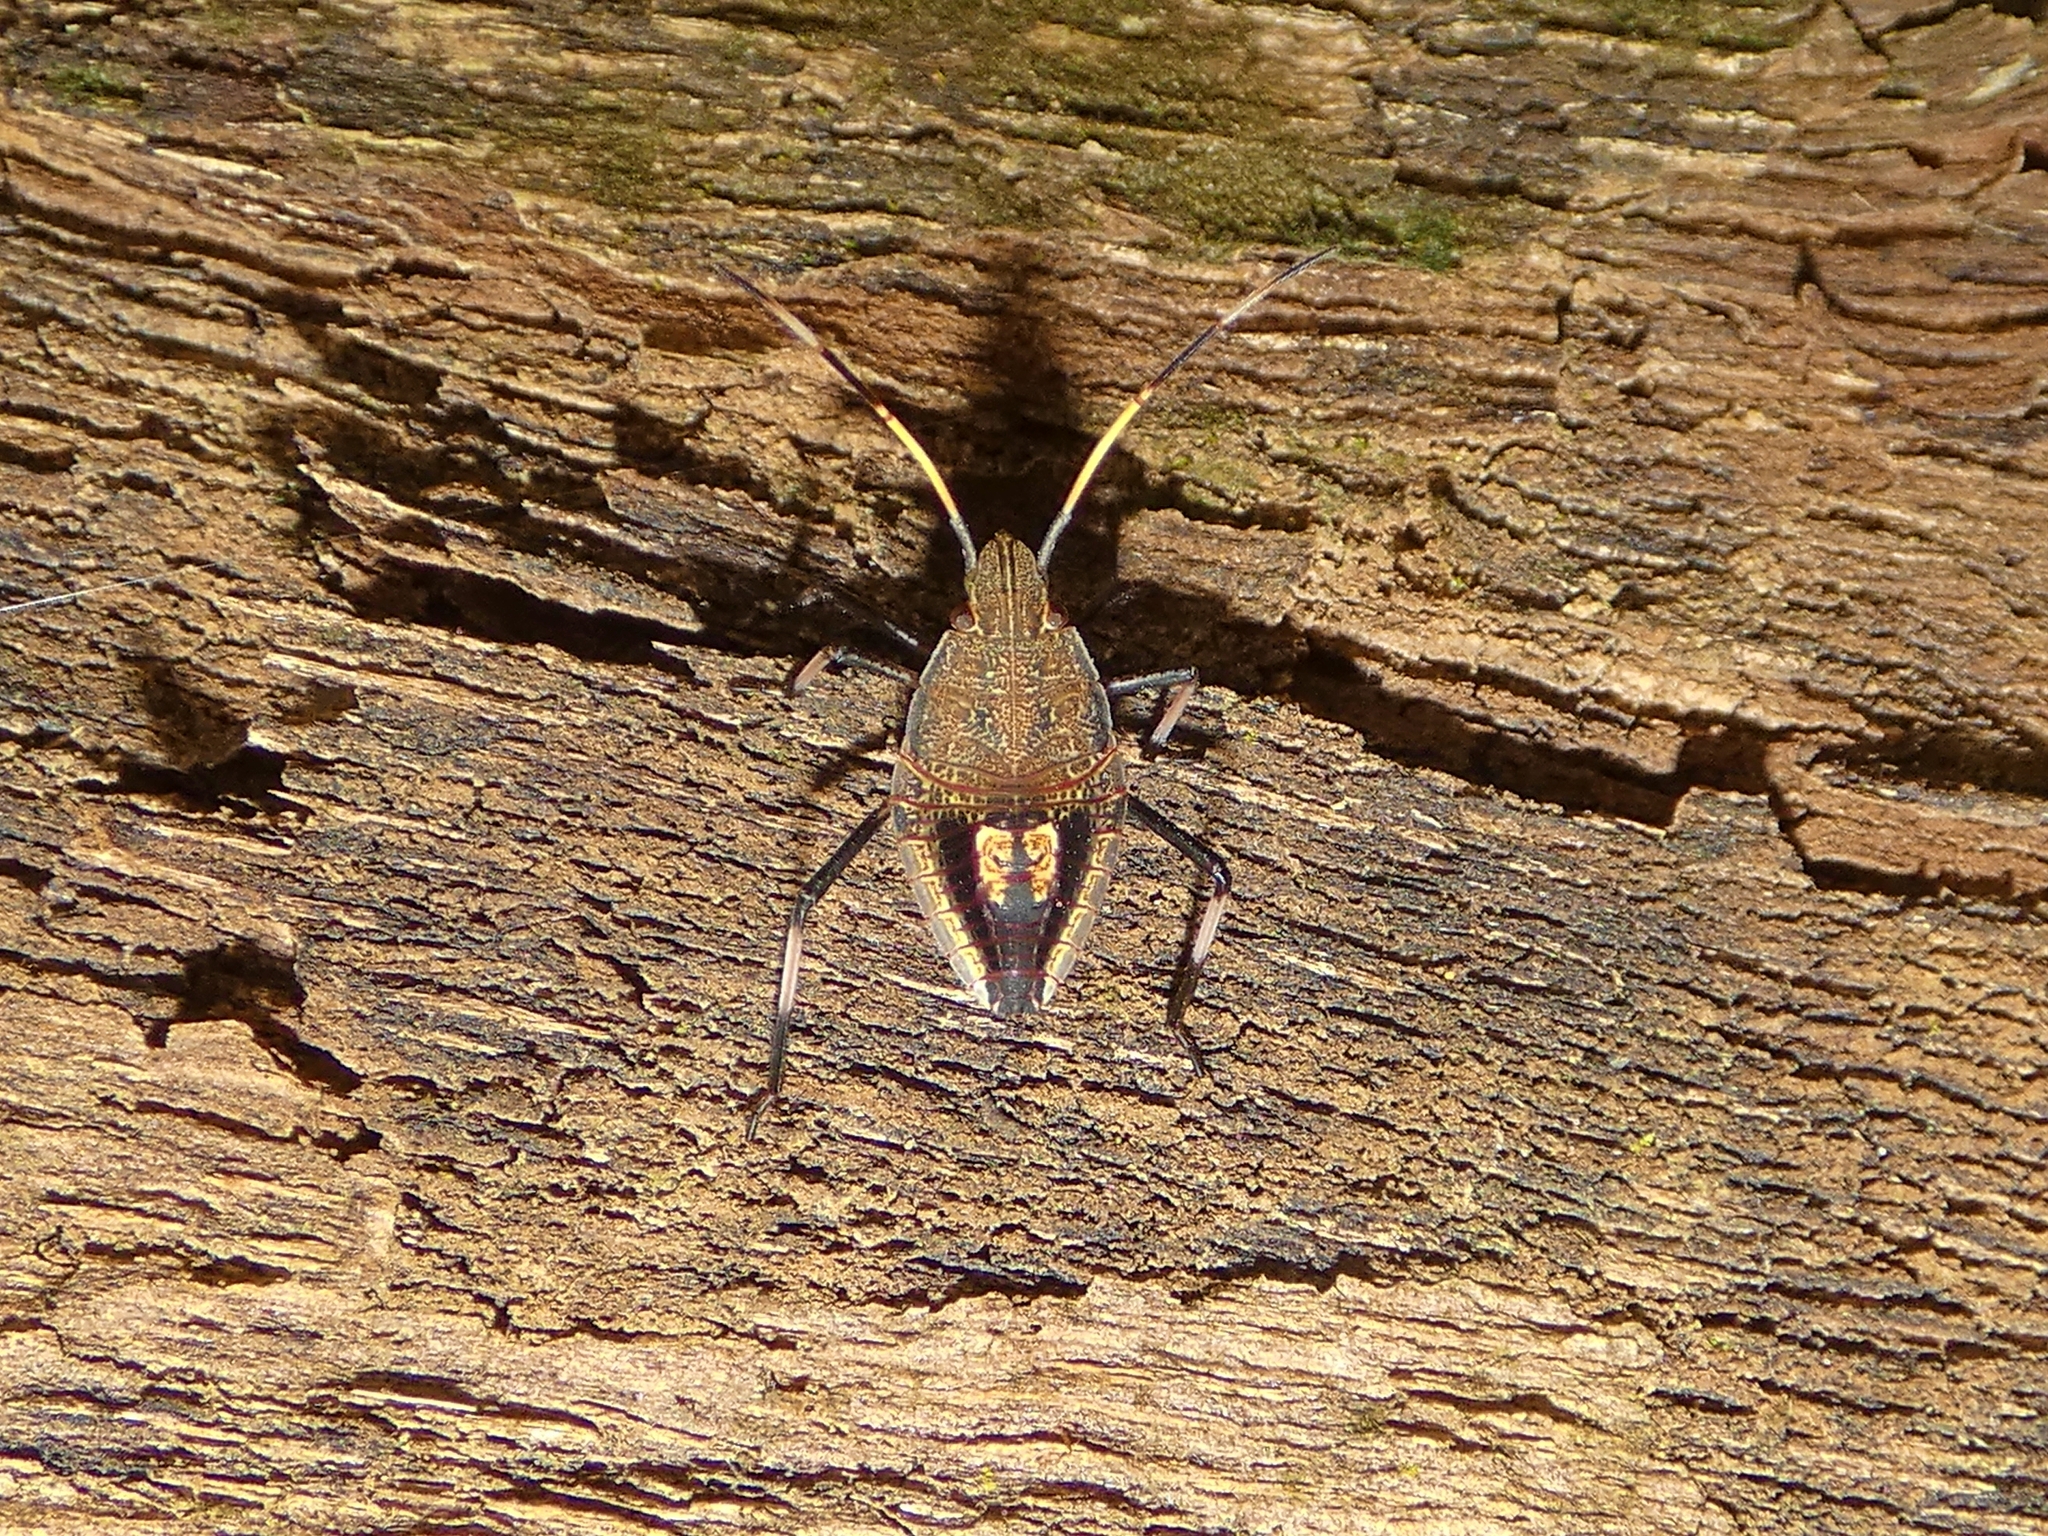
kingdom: Animalia
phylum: Arthropoda
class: Insecta
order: Hemiptera
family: Pentatomidae
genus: Poecilometis
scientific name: Poecilometis
